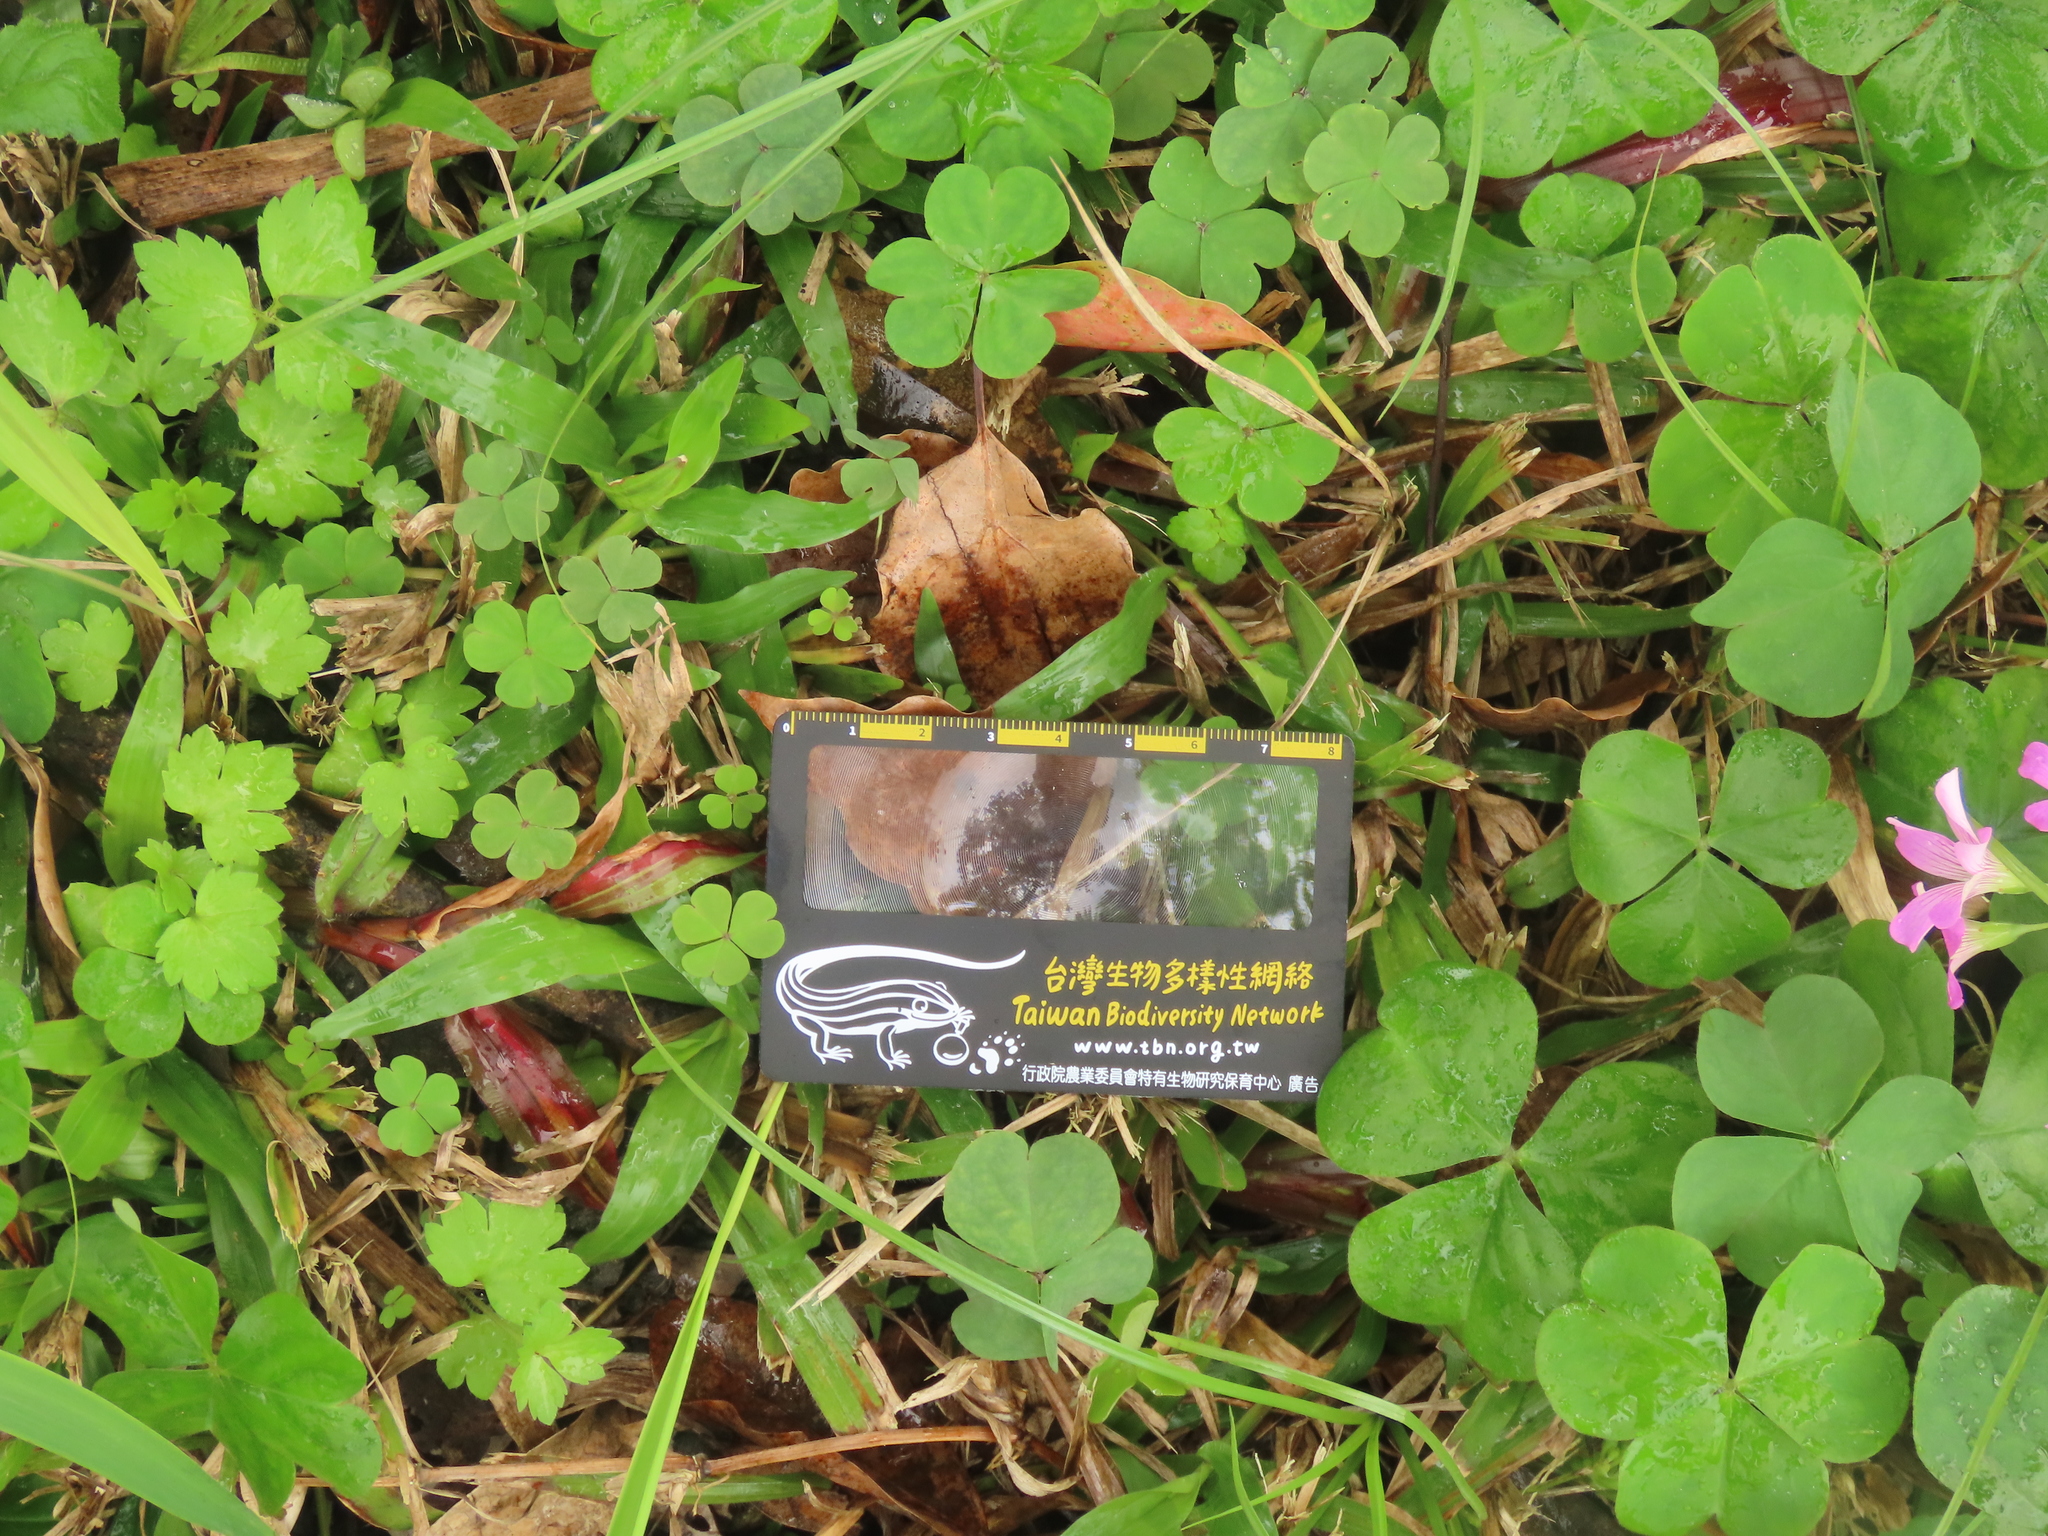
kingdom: Plantae
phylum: Tracheophyta
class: Magnoliopsida
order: Oxalidales
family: Oxalidaceae
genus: Oxalis
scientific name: Oxalis debilis
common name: Large-flowered pink-sorrel
